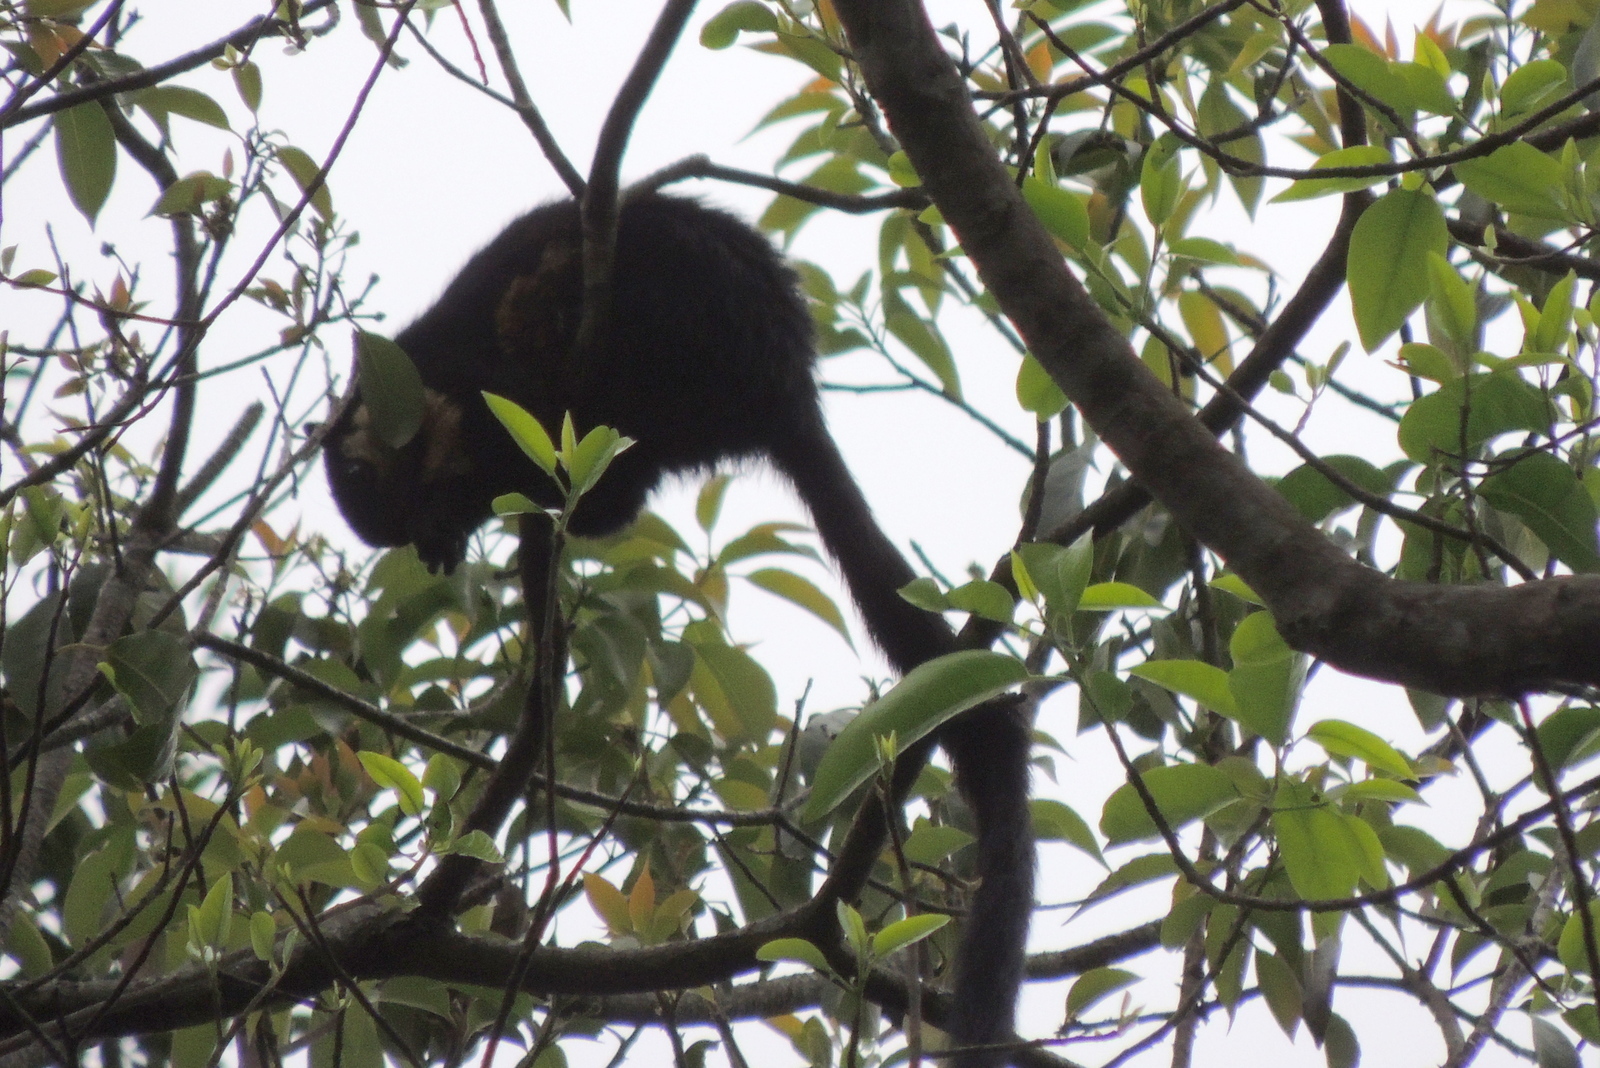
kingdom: Animalia
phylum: Chordata
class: Mammalia
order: Rodentia
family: Sciuridae
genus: Ratufa
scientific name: Ratufa bicolor
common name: Black giant squirrel
